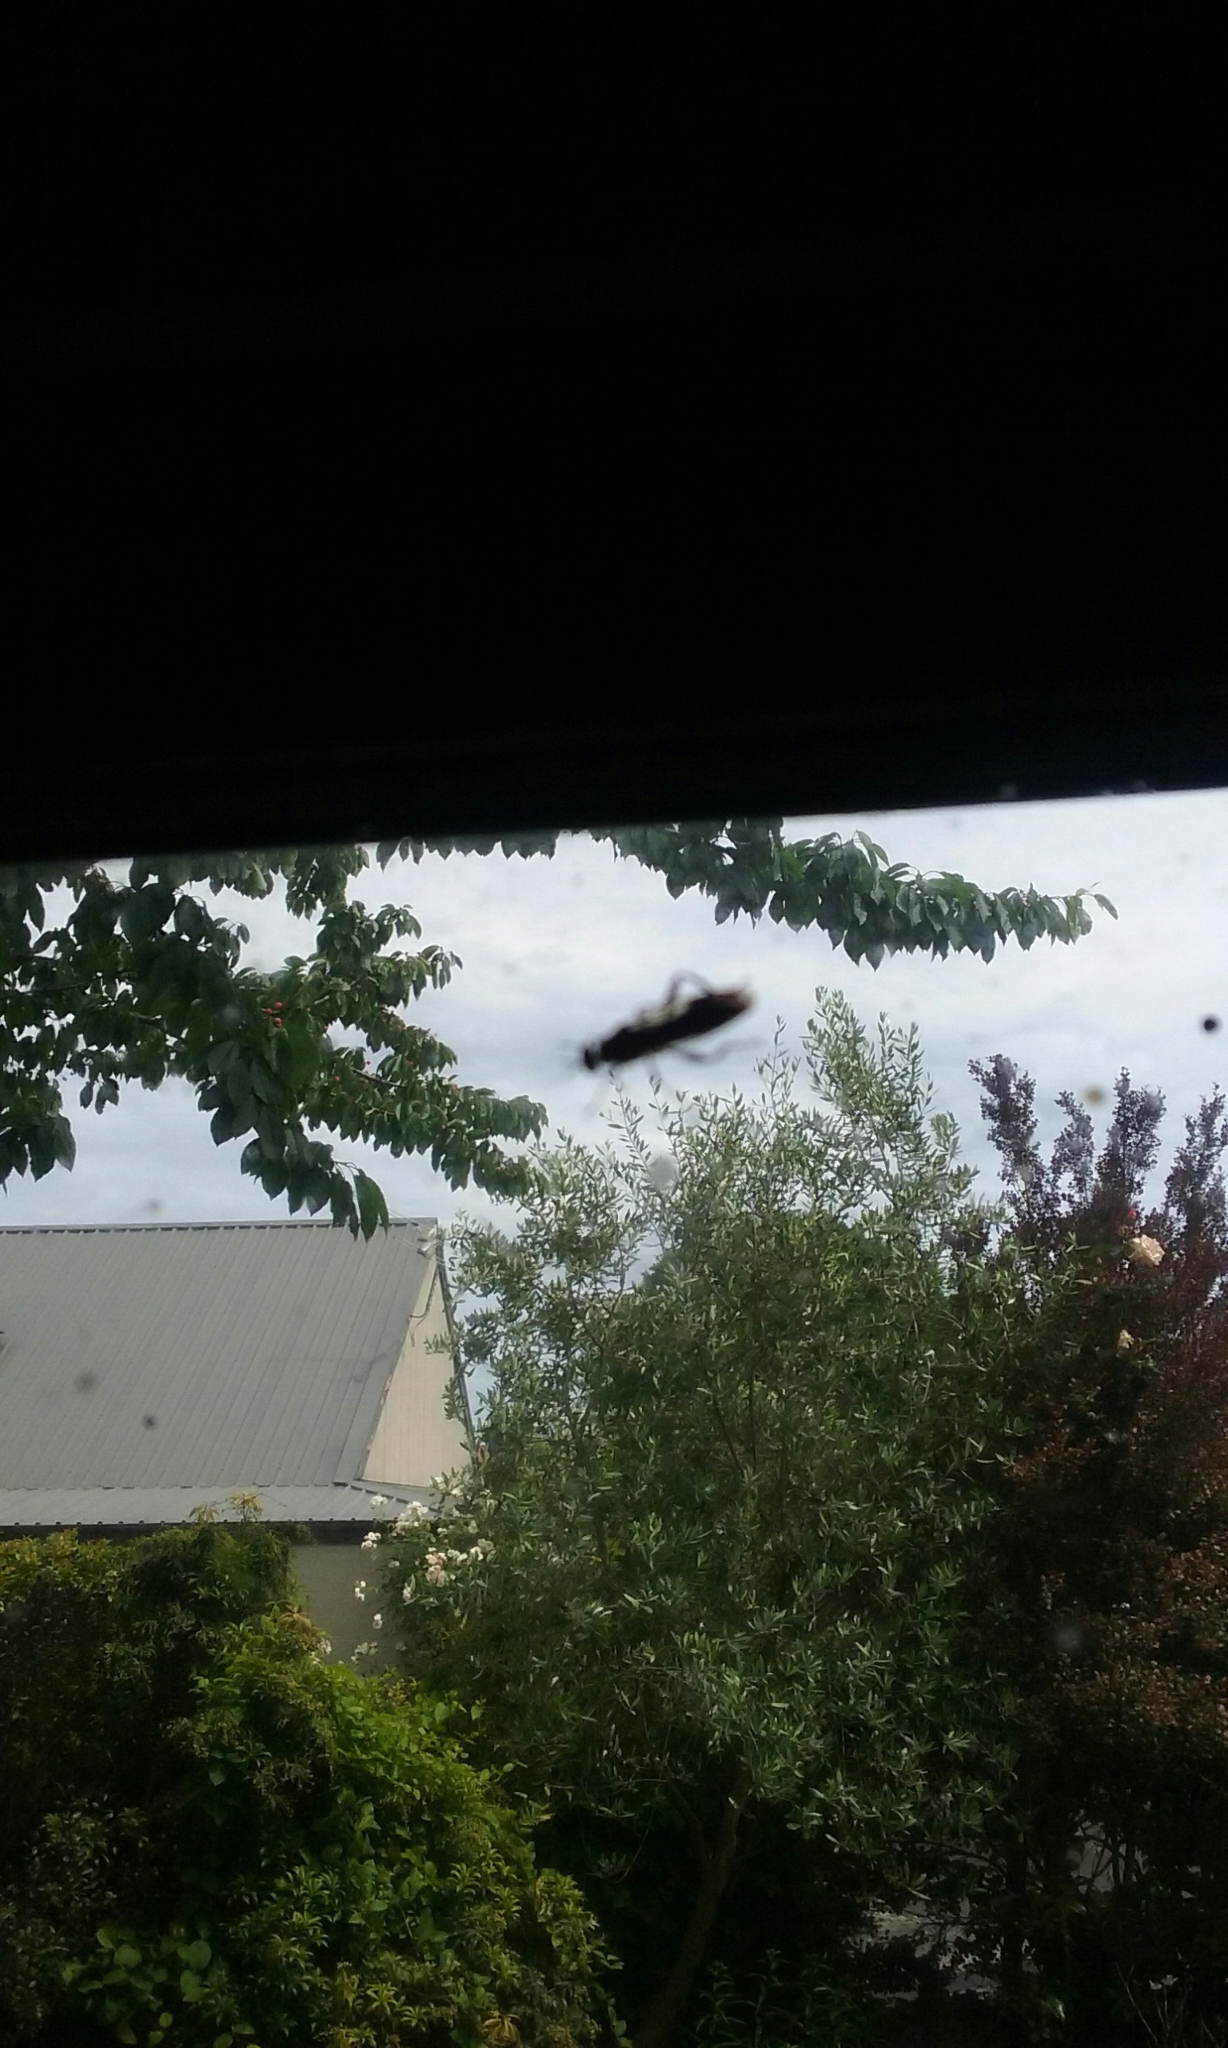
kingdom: Animalia
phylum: Arthropoda
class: Insecta
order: Diptera
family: Stratiomyidae
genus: Exaireta
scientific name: Exaireta spinigera
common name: Blue soldier fly
